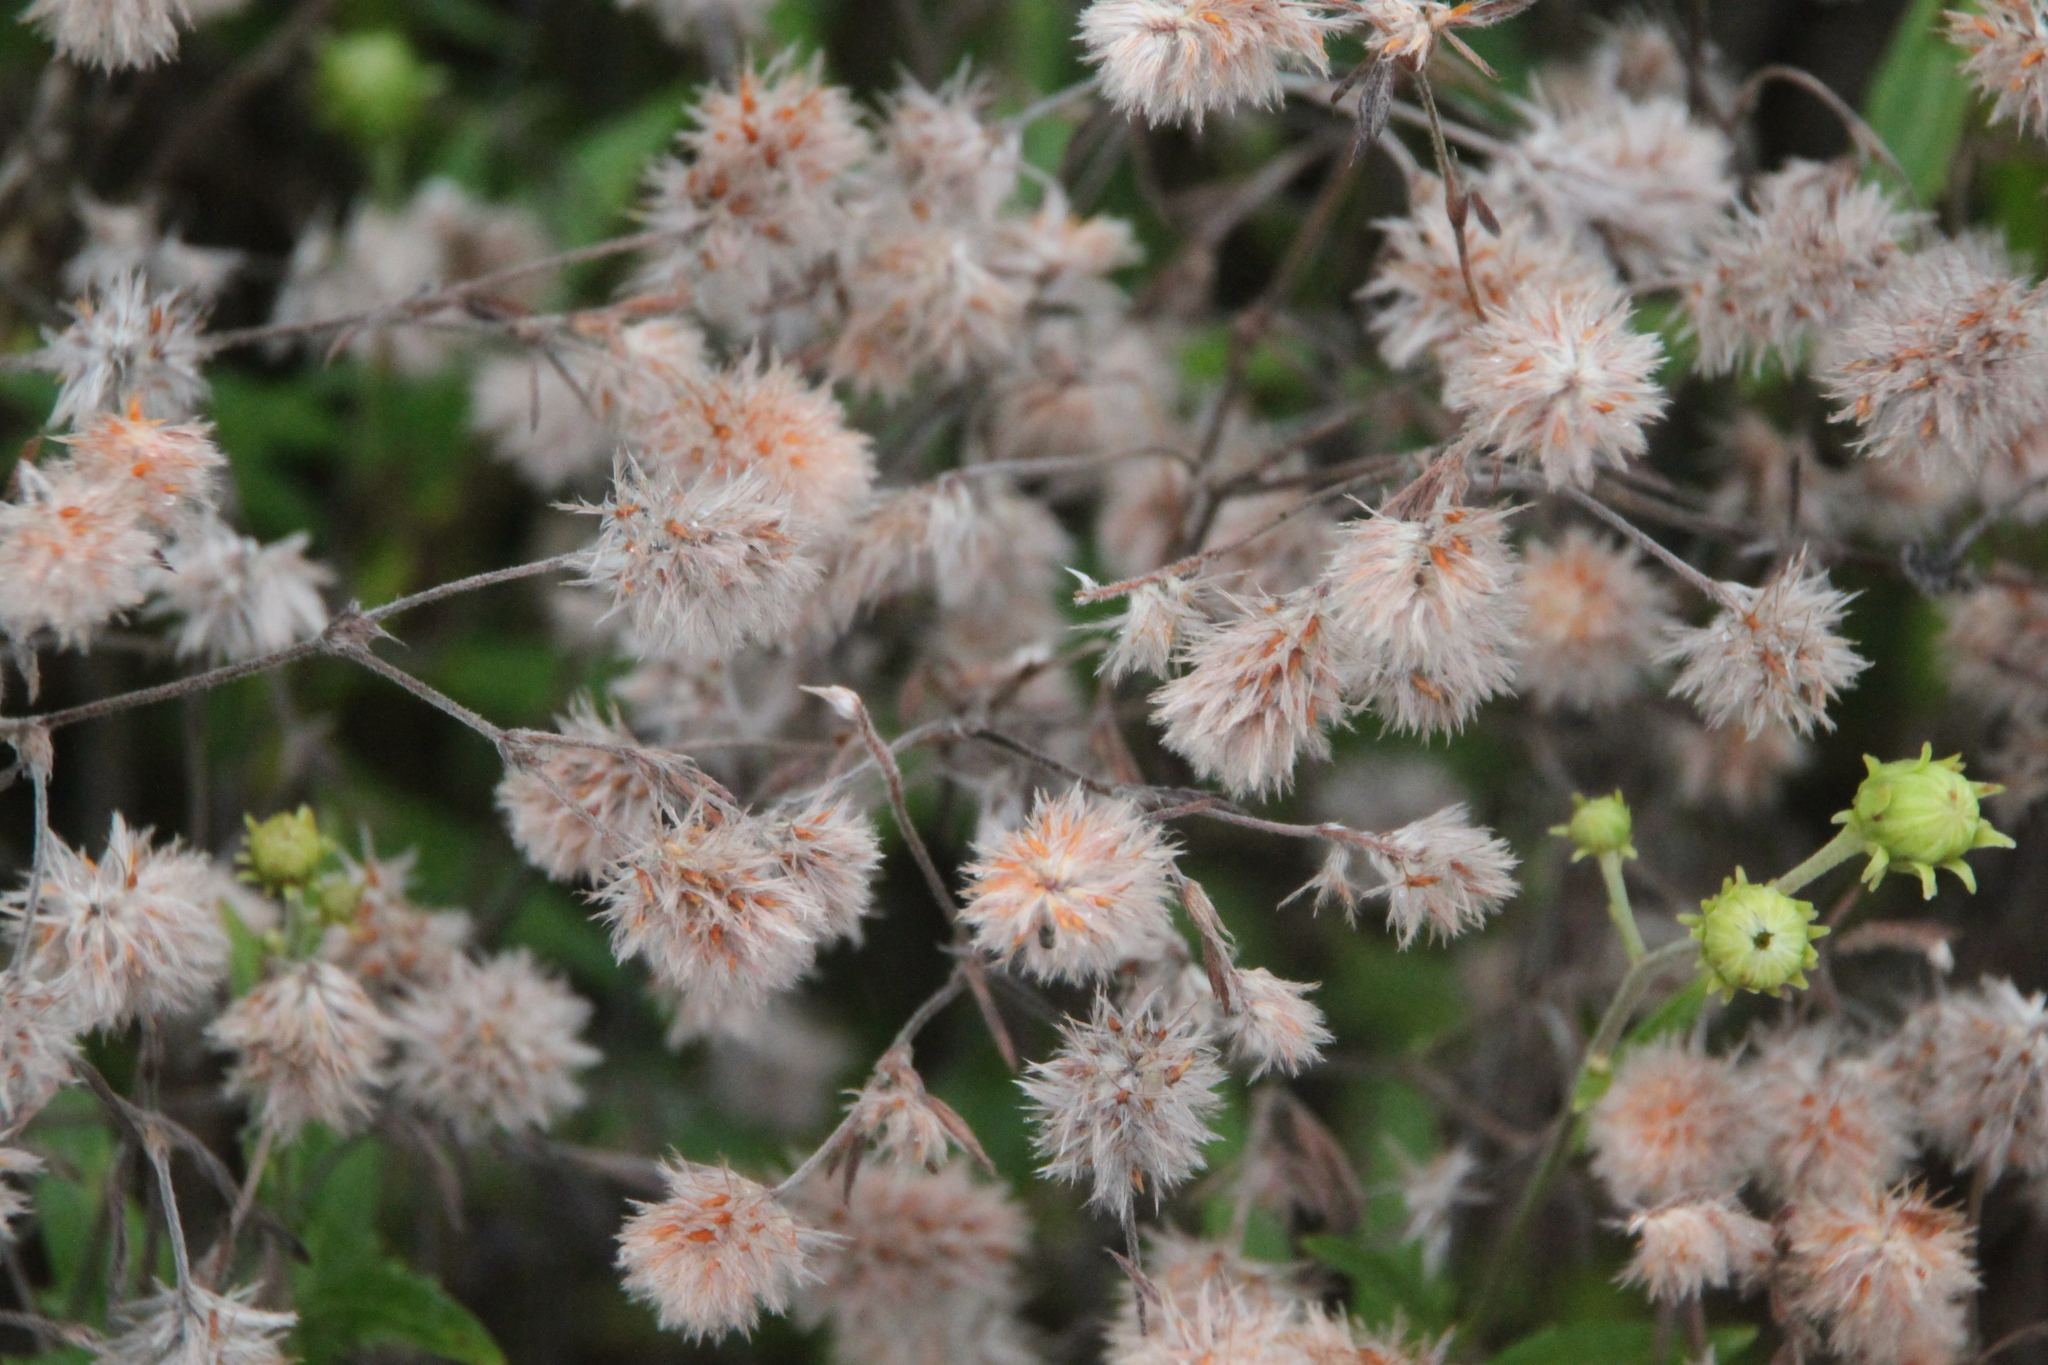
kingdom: Plantae
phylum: Tracheophyta
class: Magnoliopsida
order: Fabales
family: Fabaceae
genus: Trifolium
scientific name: Trifolium arvense
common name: Hare's-foot clover
